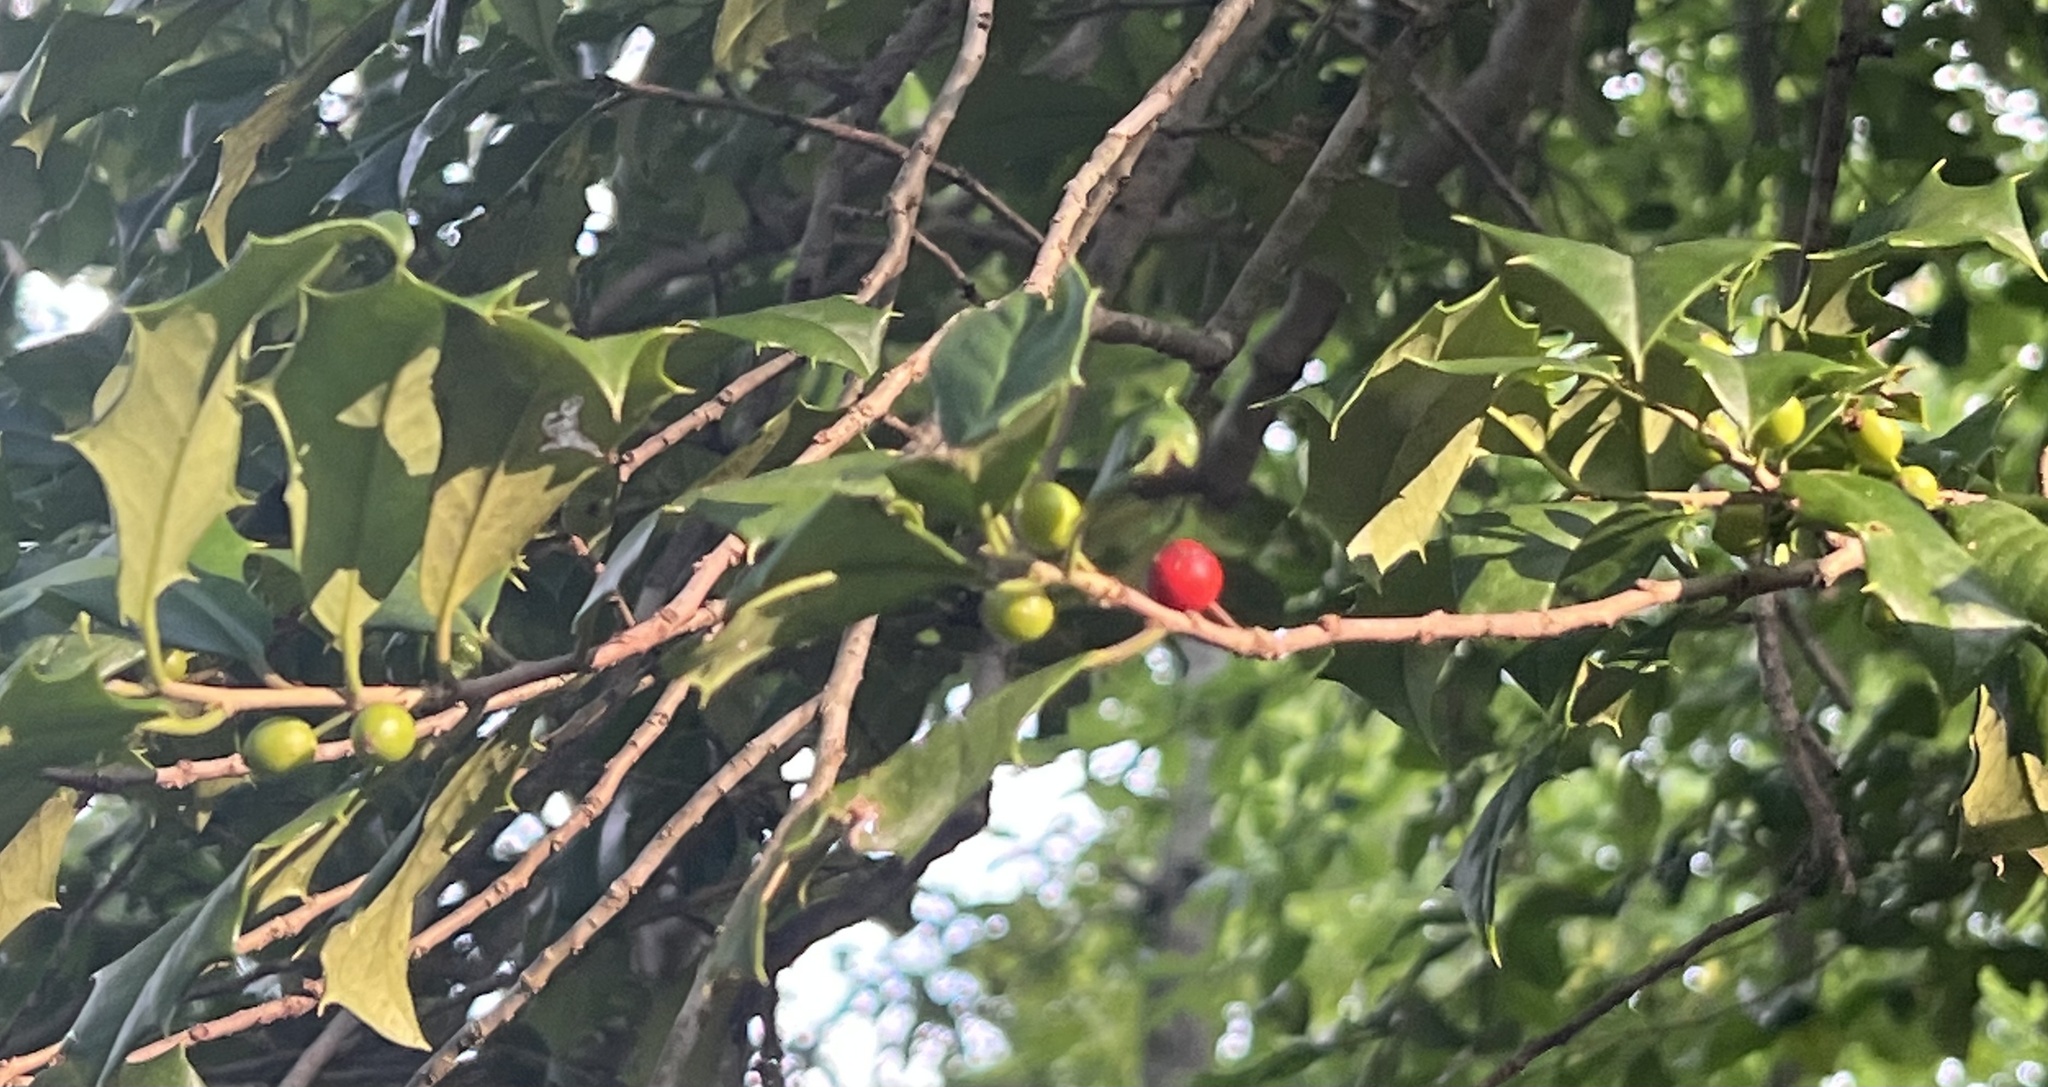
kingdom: Plantae
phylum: Tracheophyta
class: Magnoliopsida
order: Aquifoliales
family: Aquifoliaceae
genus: Ilex
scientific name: Ilex opaca
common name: American holly
